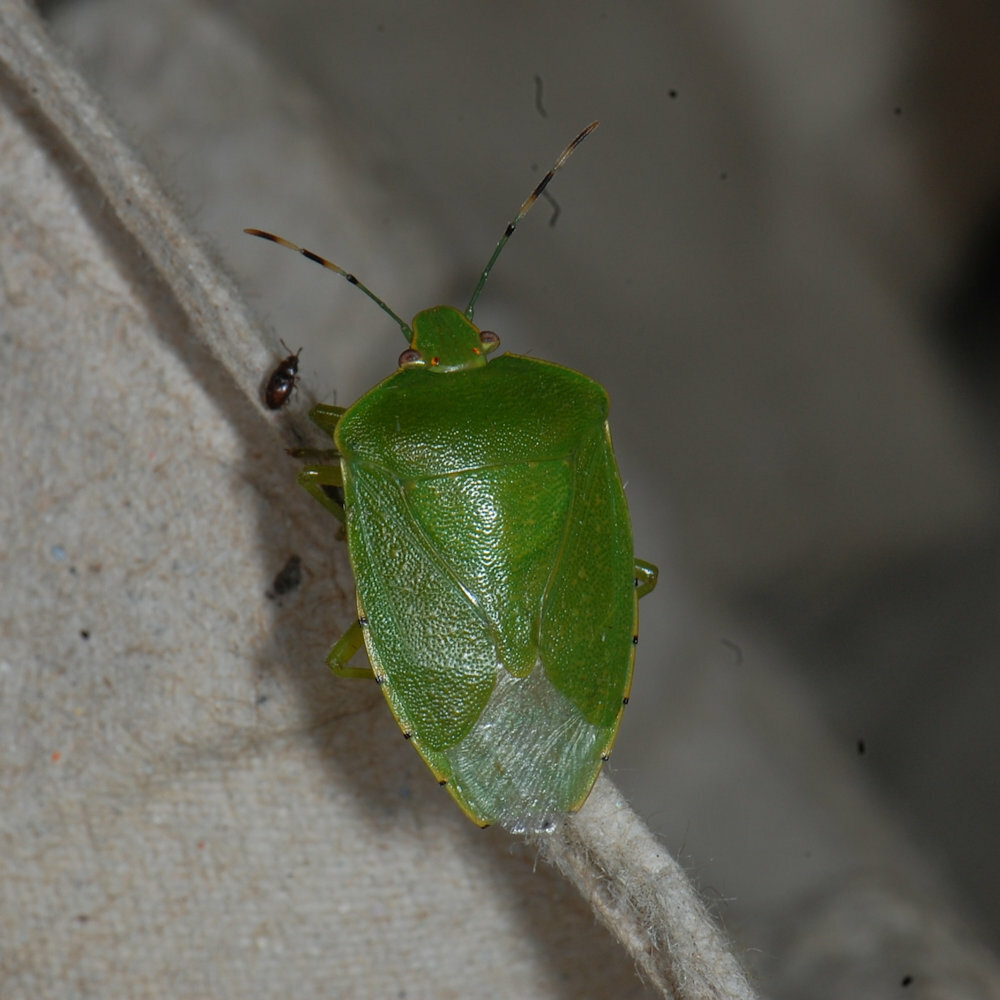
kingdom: Animalia
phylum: Arthropoda
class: Insecta
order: Hemiptera
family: Pentatomidae
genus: Chinavia
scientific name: Chinavia hilaris
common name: Green stink bug
